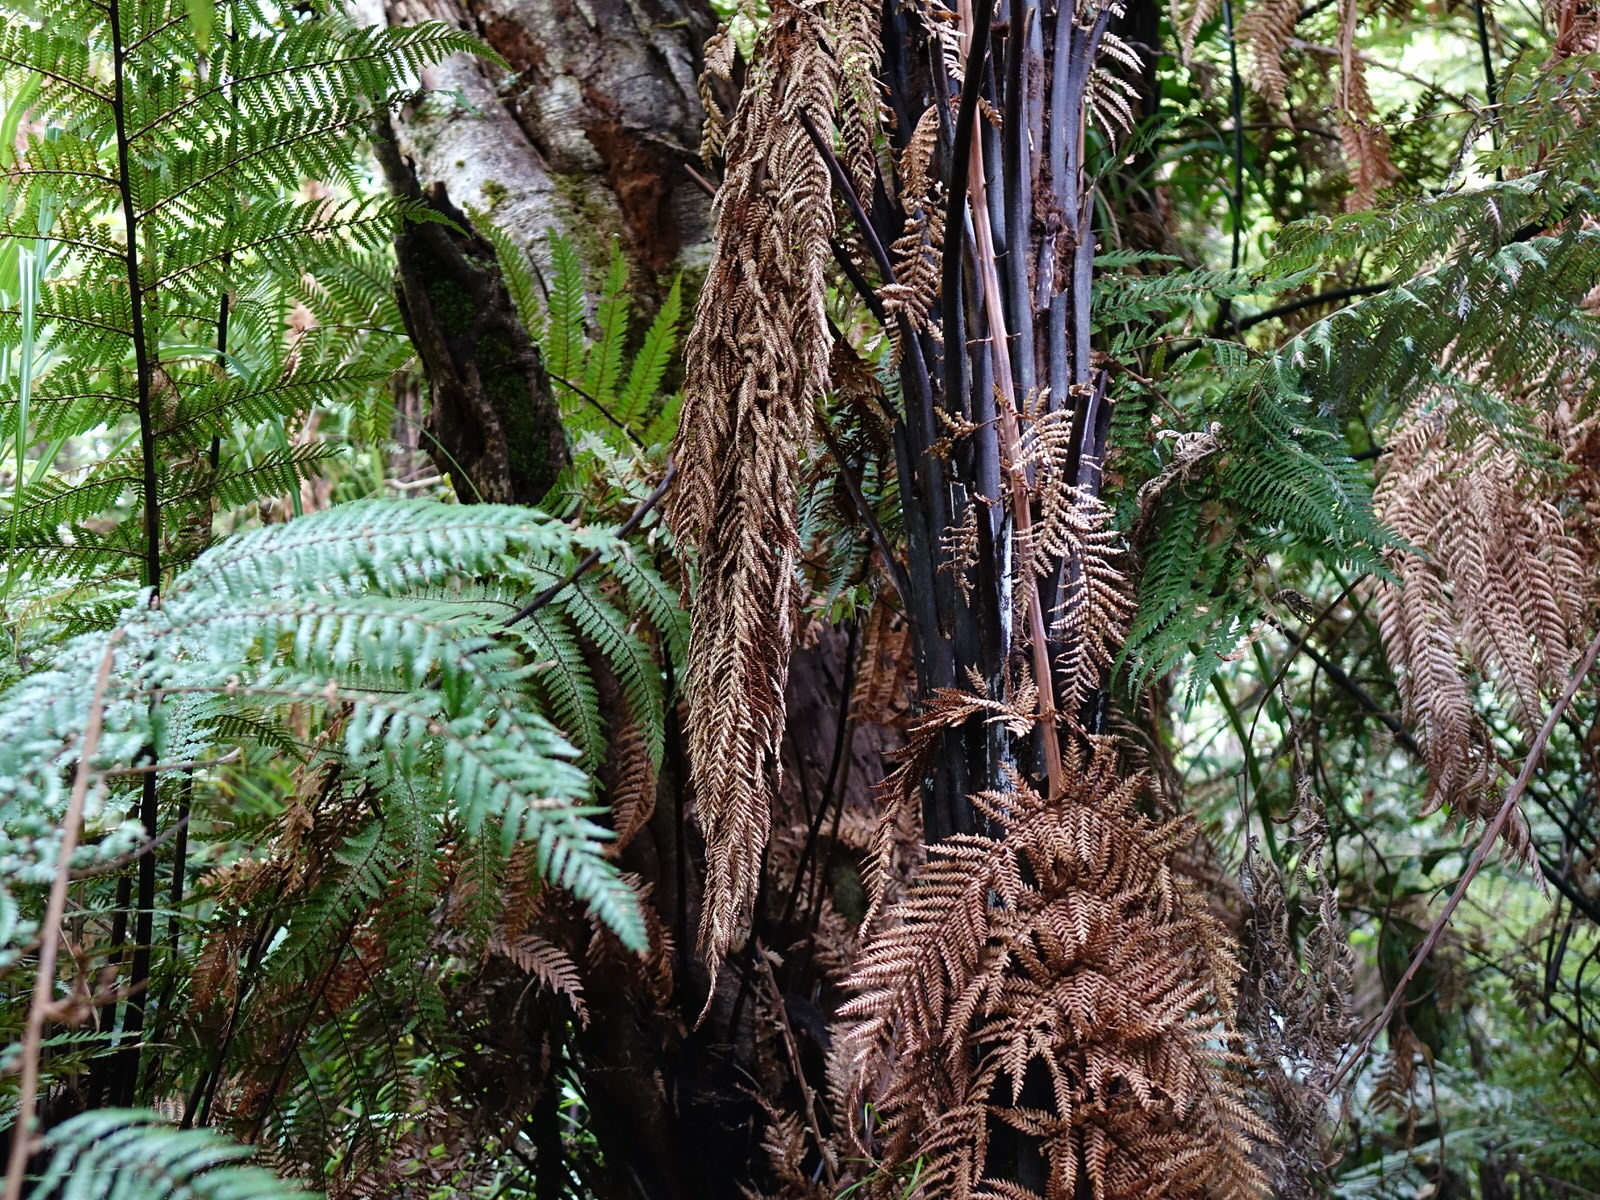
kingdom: Plantae
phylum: Tracheophyta
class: Polypodiopsida
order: Cyatheales
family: Dicksoniaceae
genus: Dicksonia
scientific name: Dicksonia squarrosa
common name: Hard treefern
